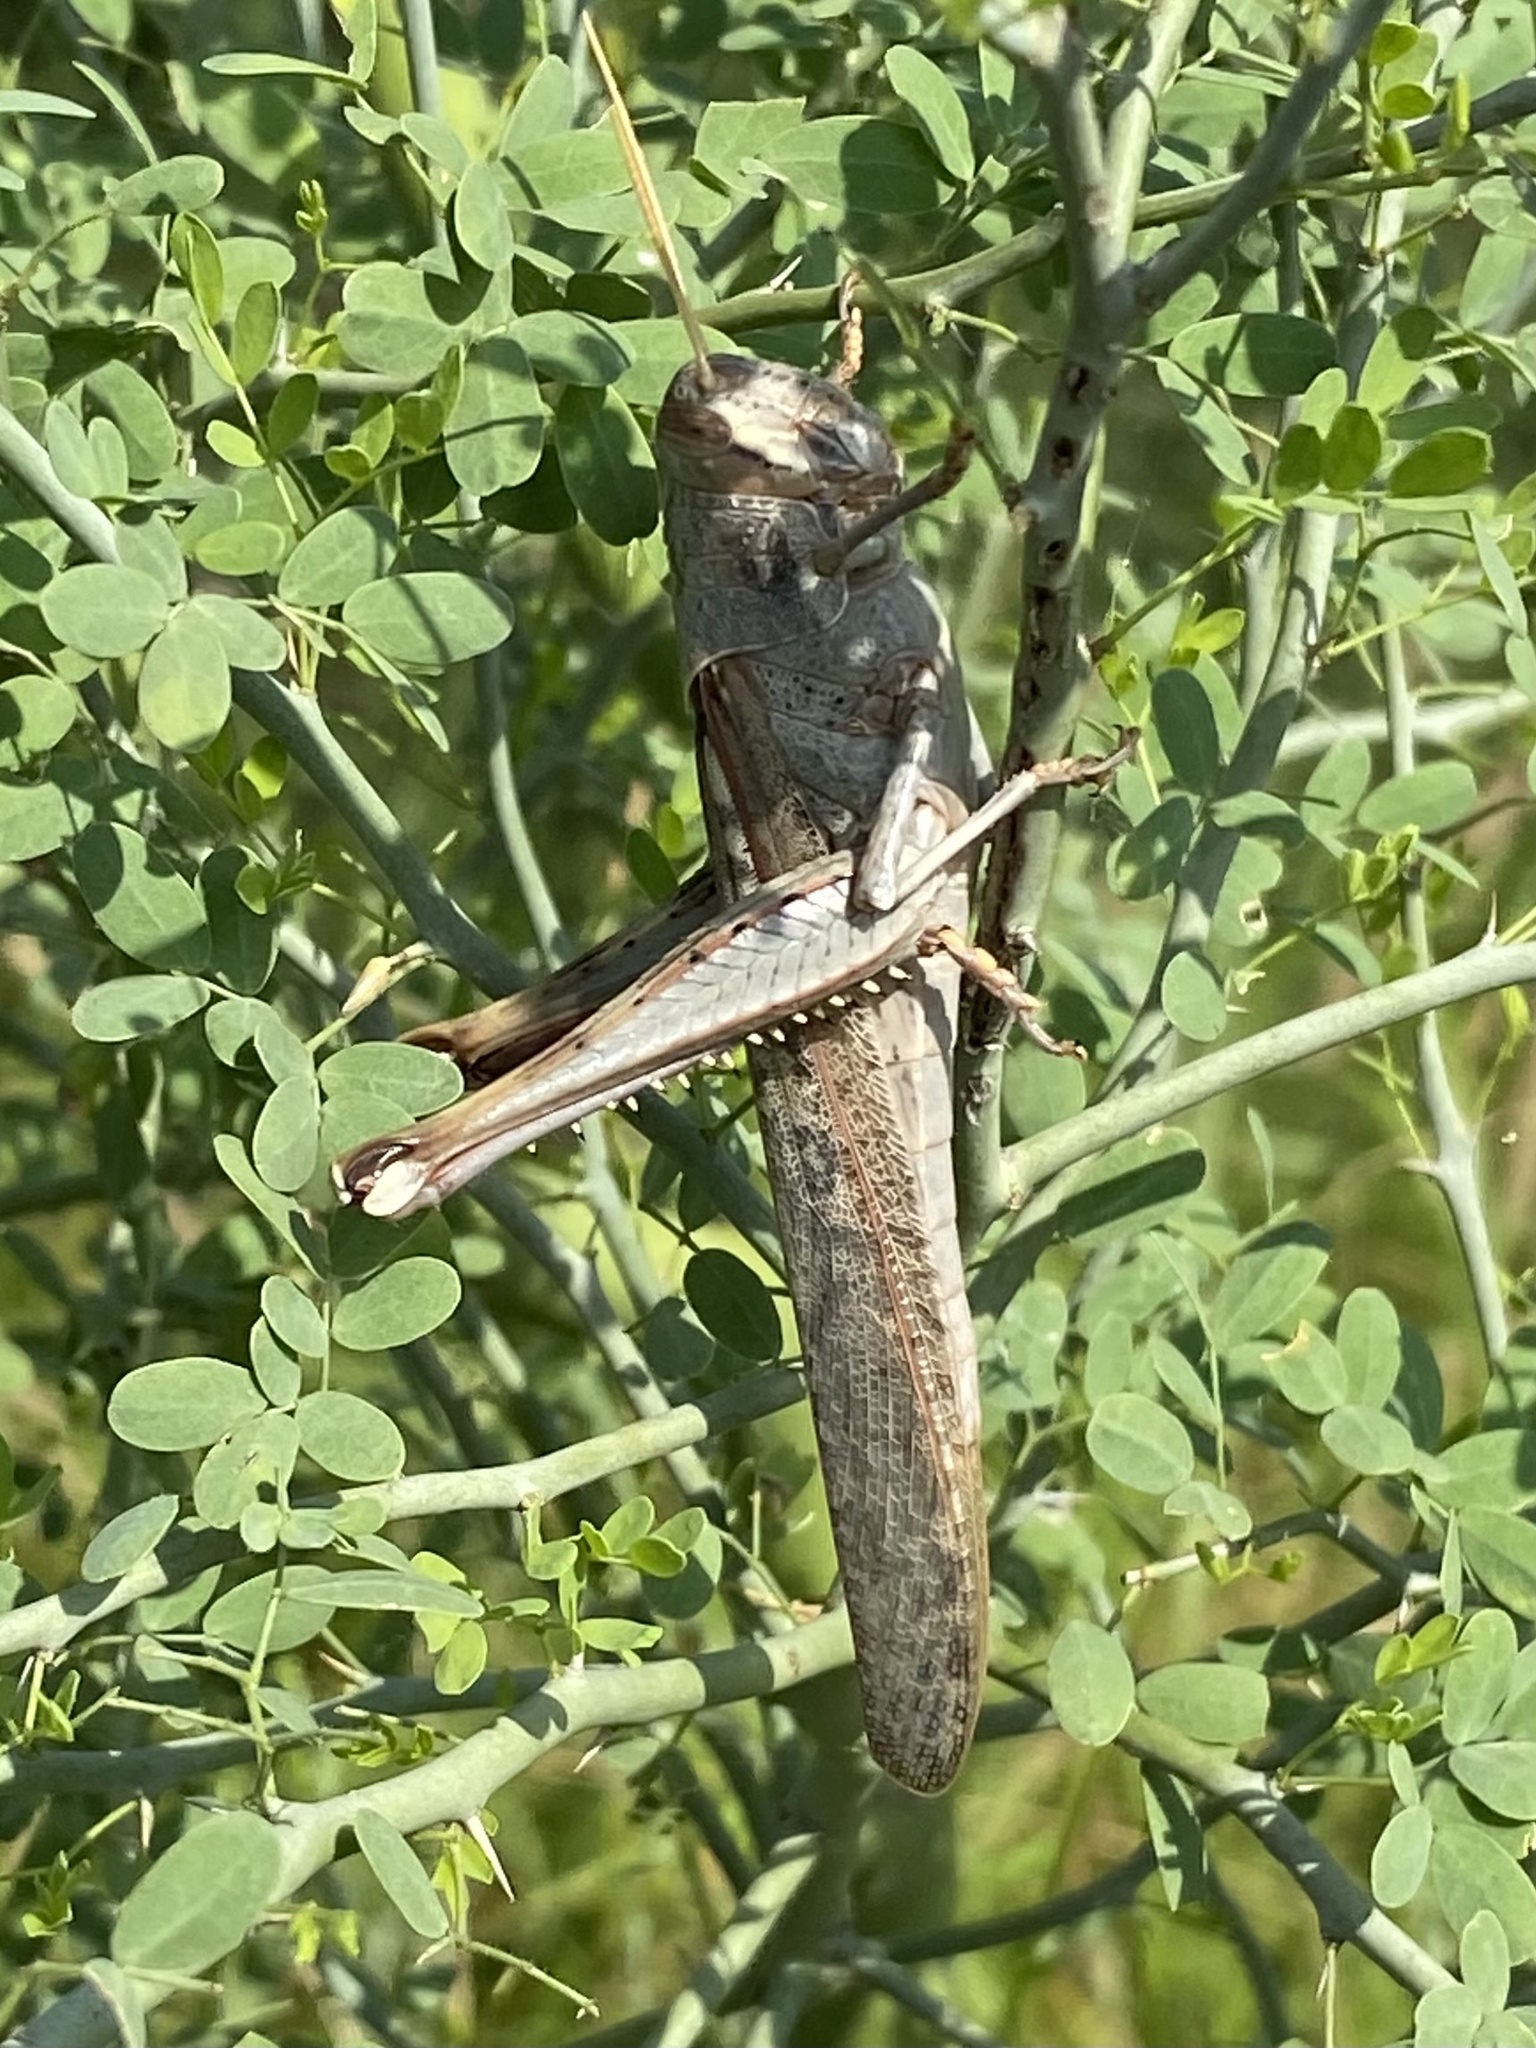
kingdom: Animalia
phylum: Arthropoda
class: Insecta
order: Orthoptera
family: Acrididae
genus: Schistocerca
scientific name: Schistocerca nitens
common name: Vagrant grasshopper
